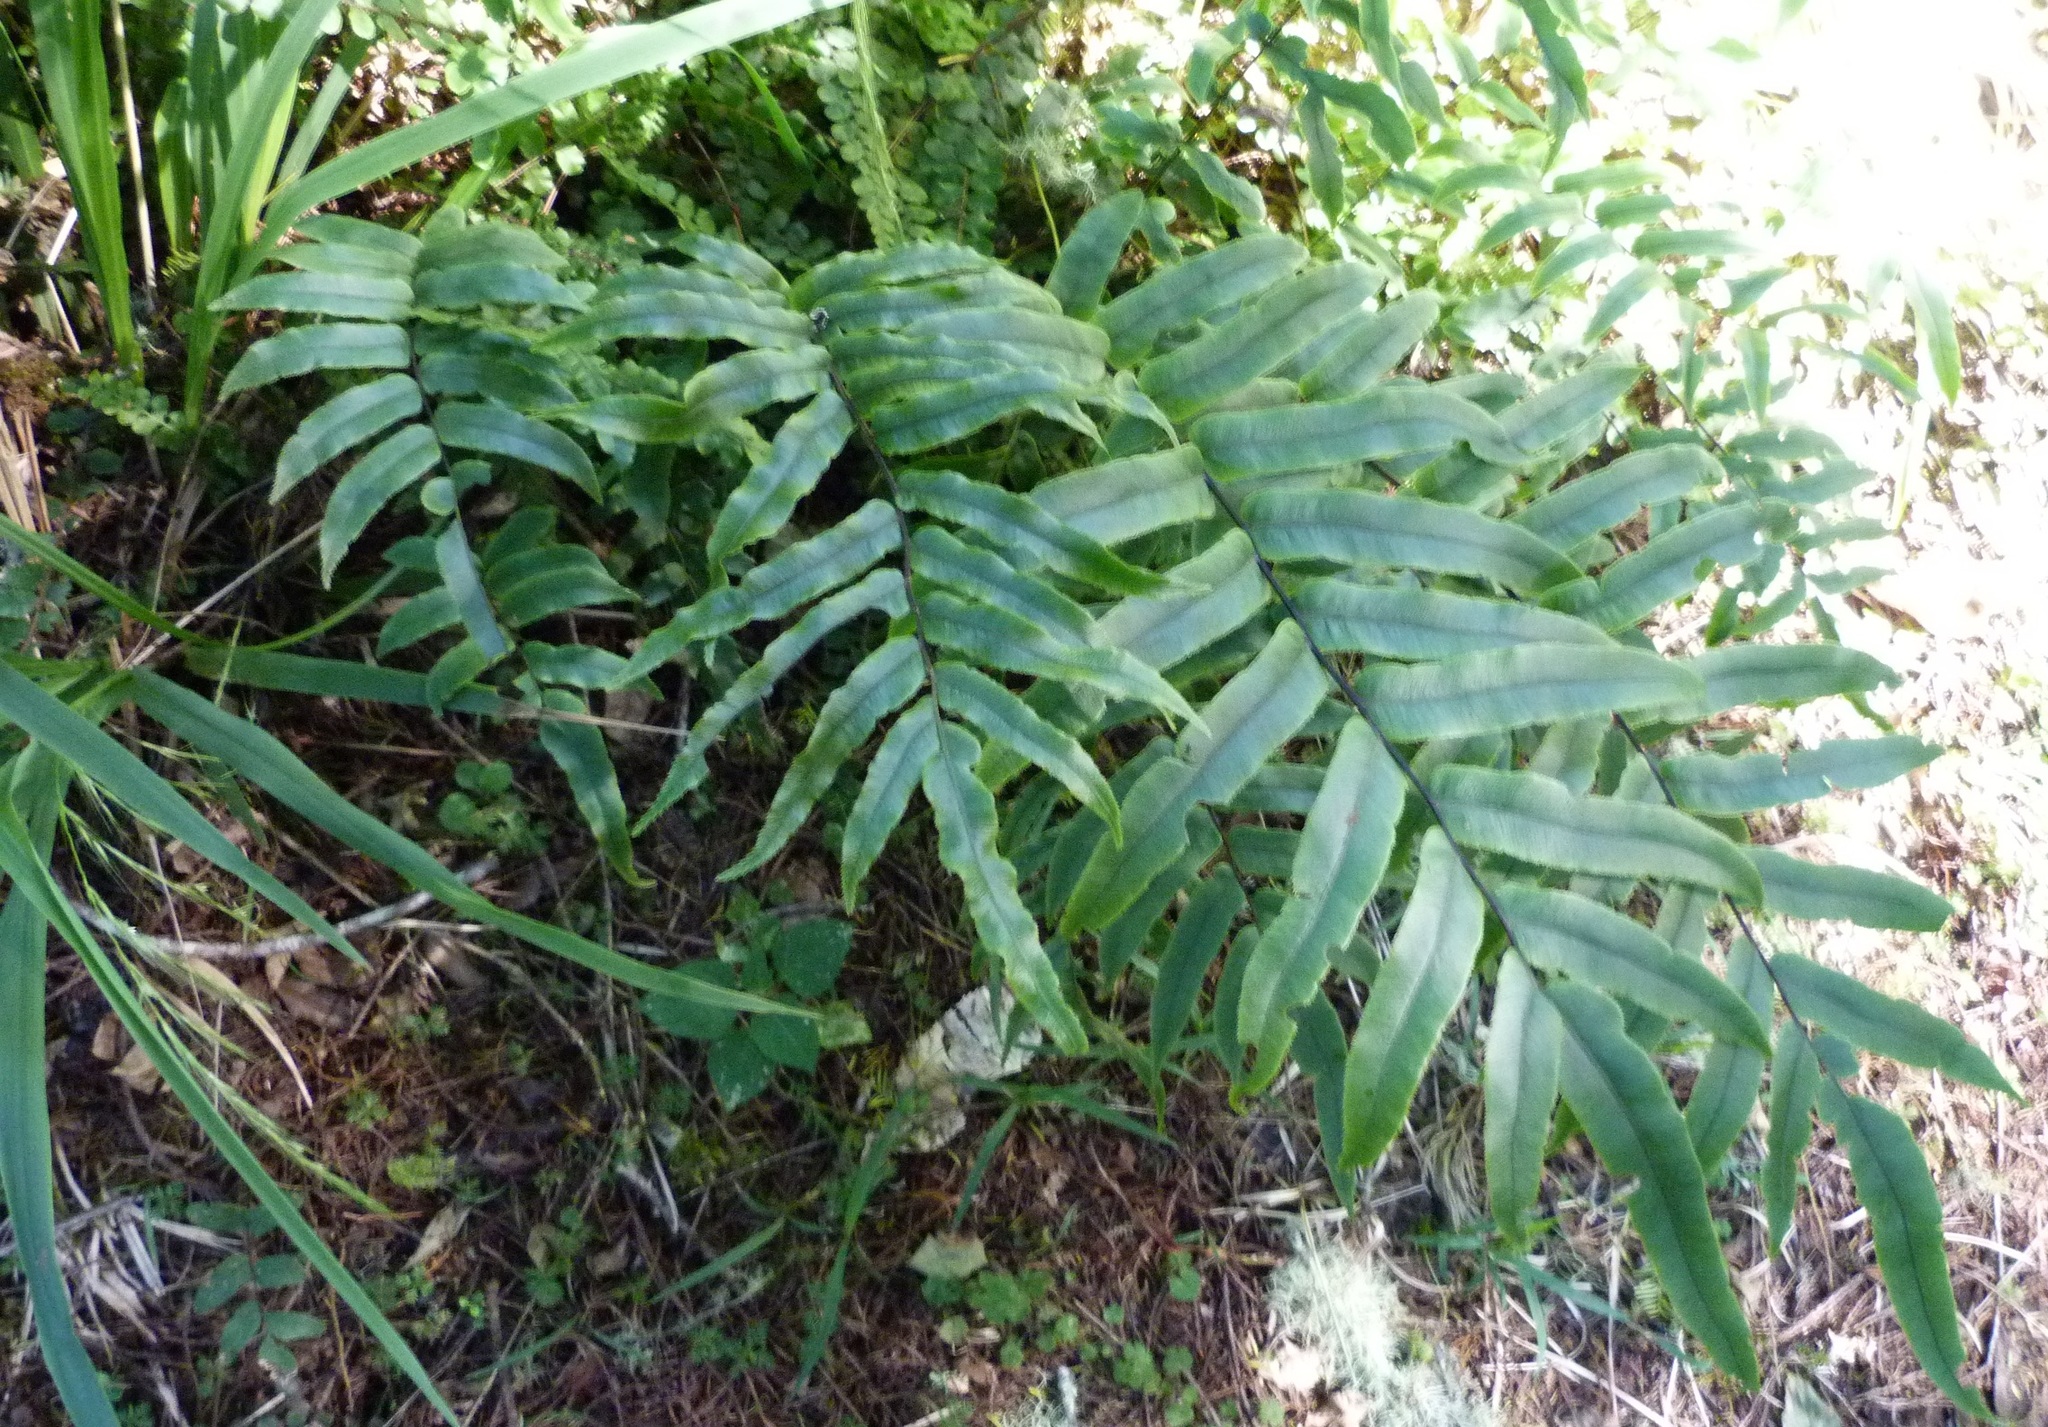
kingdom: Plantae
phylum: Tracheophyta
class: Polypodiopsida
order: Polypodiales
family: Blechnaceae
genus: Parablechnum
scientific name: Parablechnum procerum
